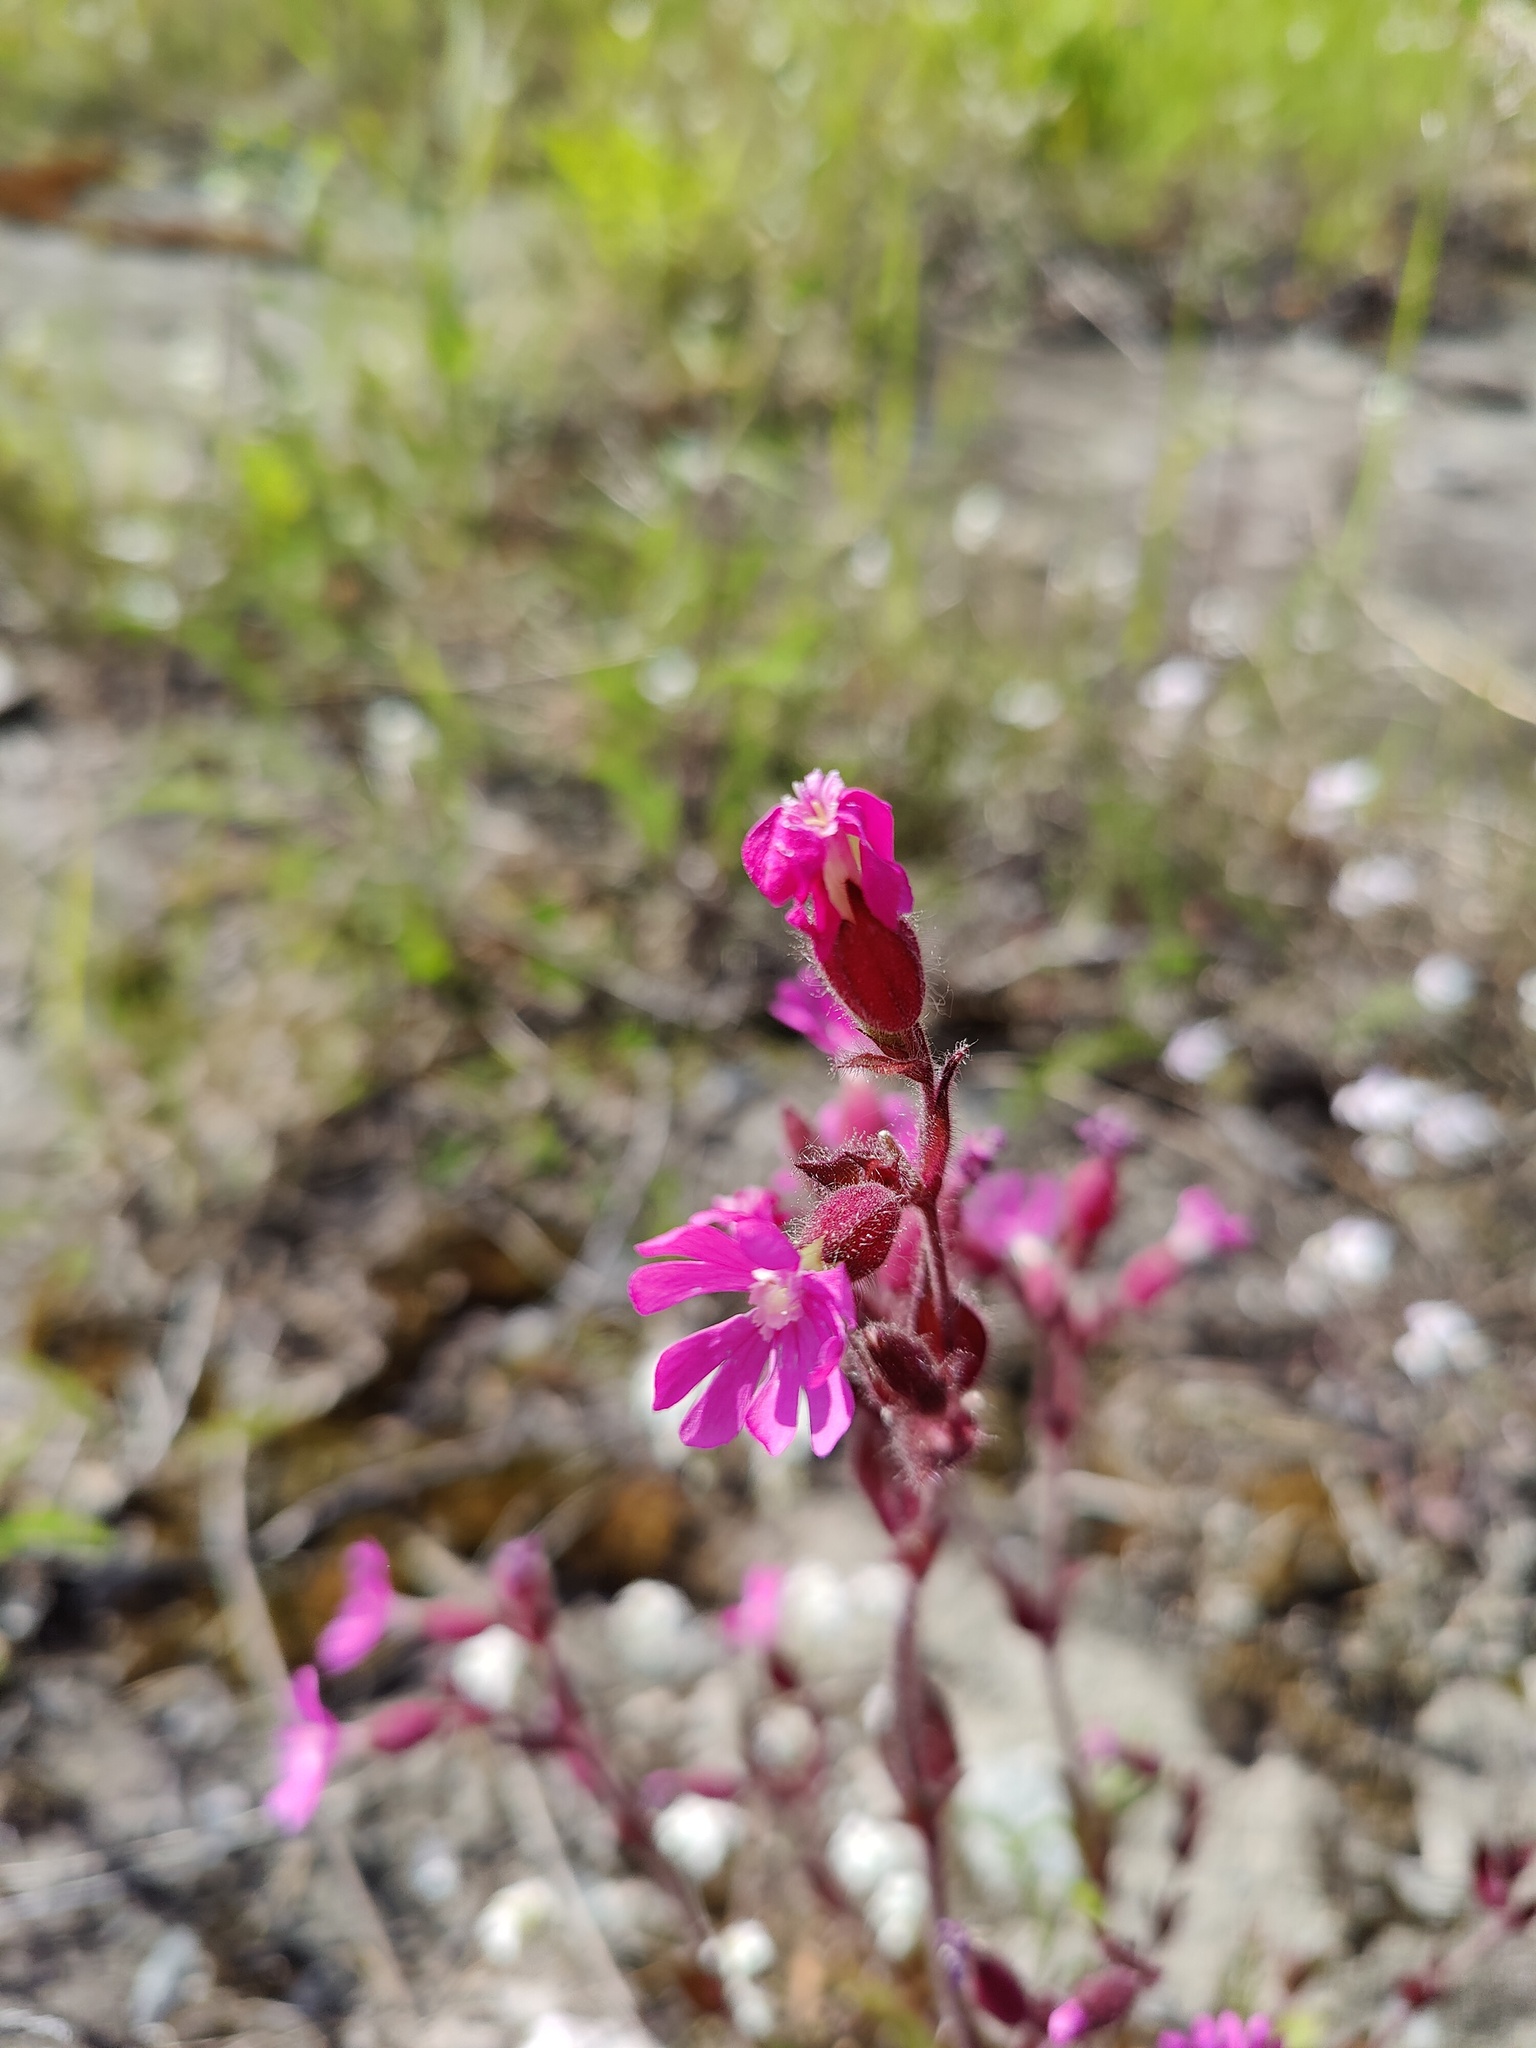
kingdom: Plantae
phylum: Tracheophyta
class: Magnoliopsida
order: Caryophyllales
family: Caryophyllaceae
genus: Silene
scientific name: Silene dioica
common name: Red campion
